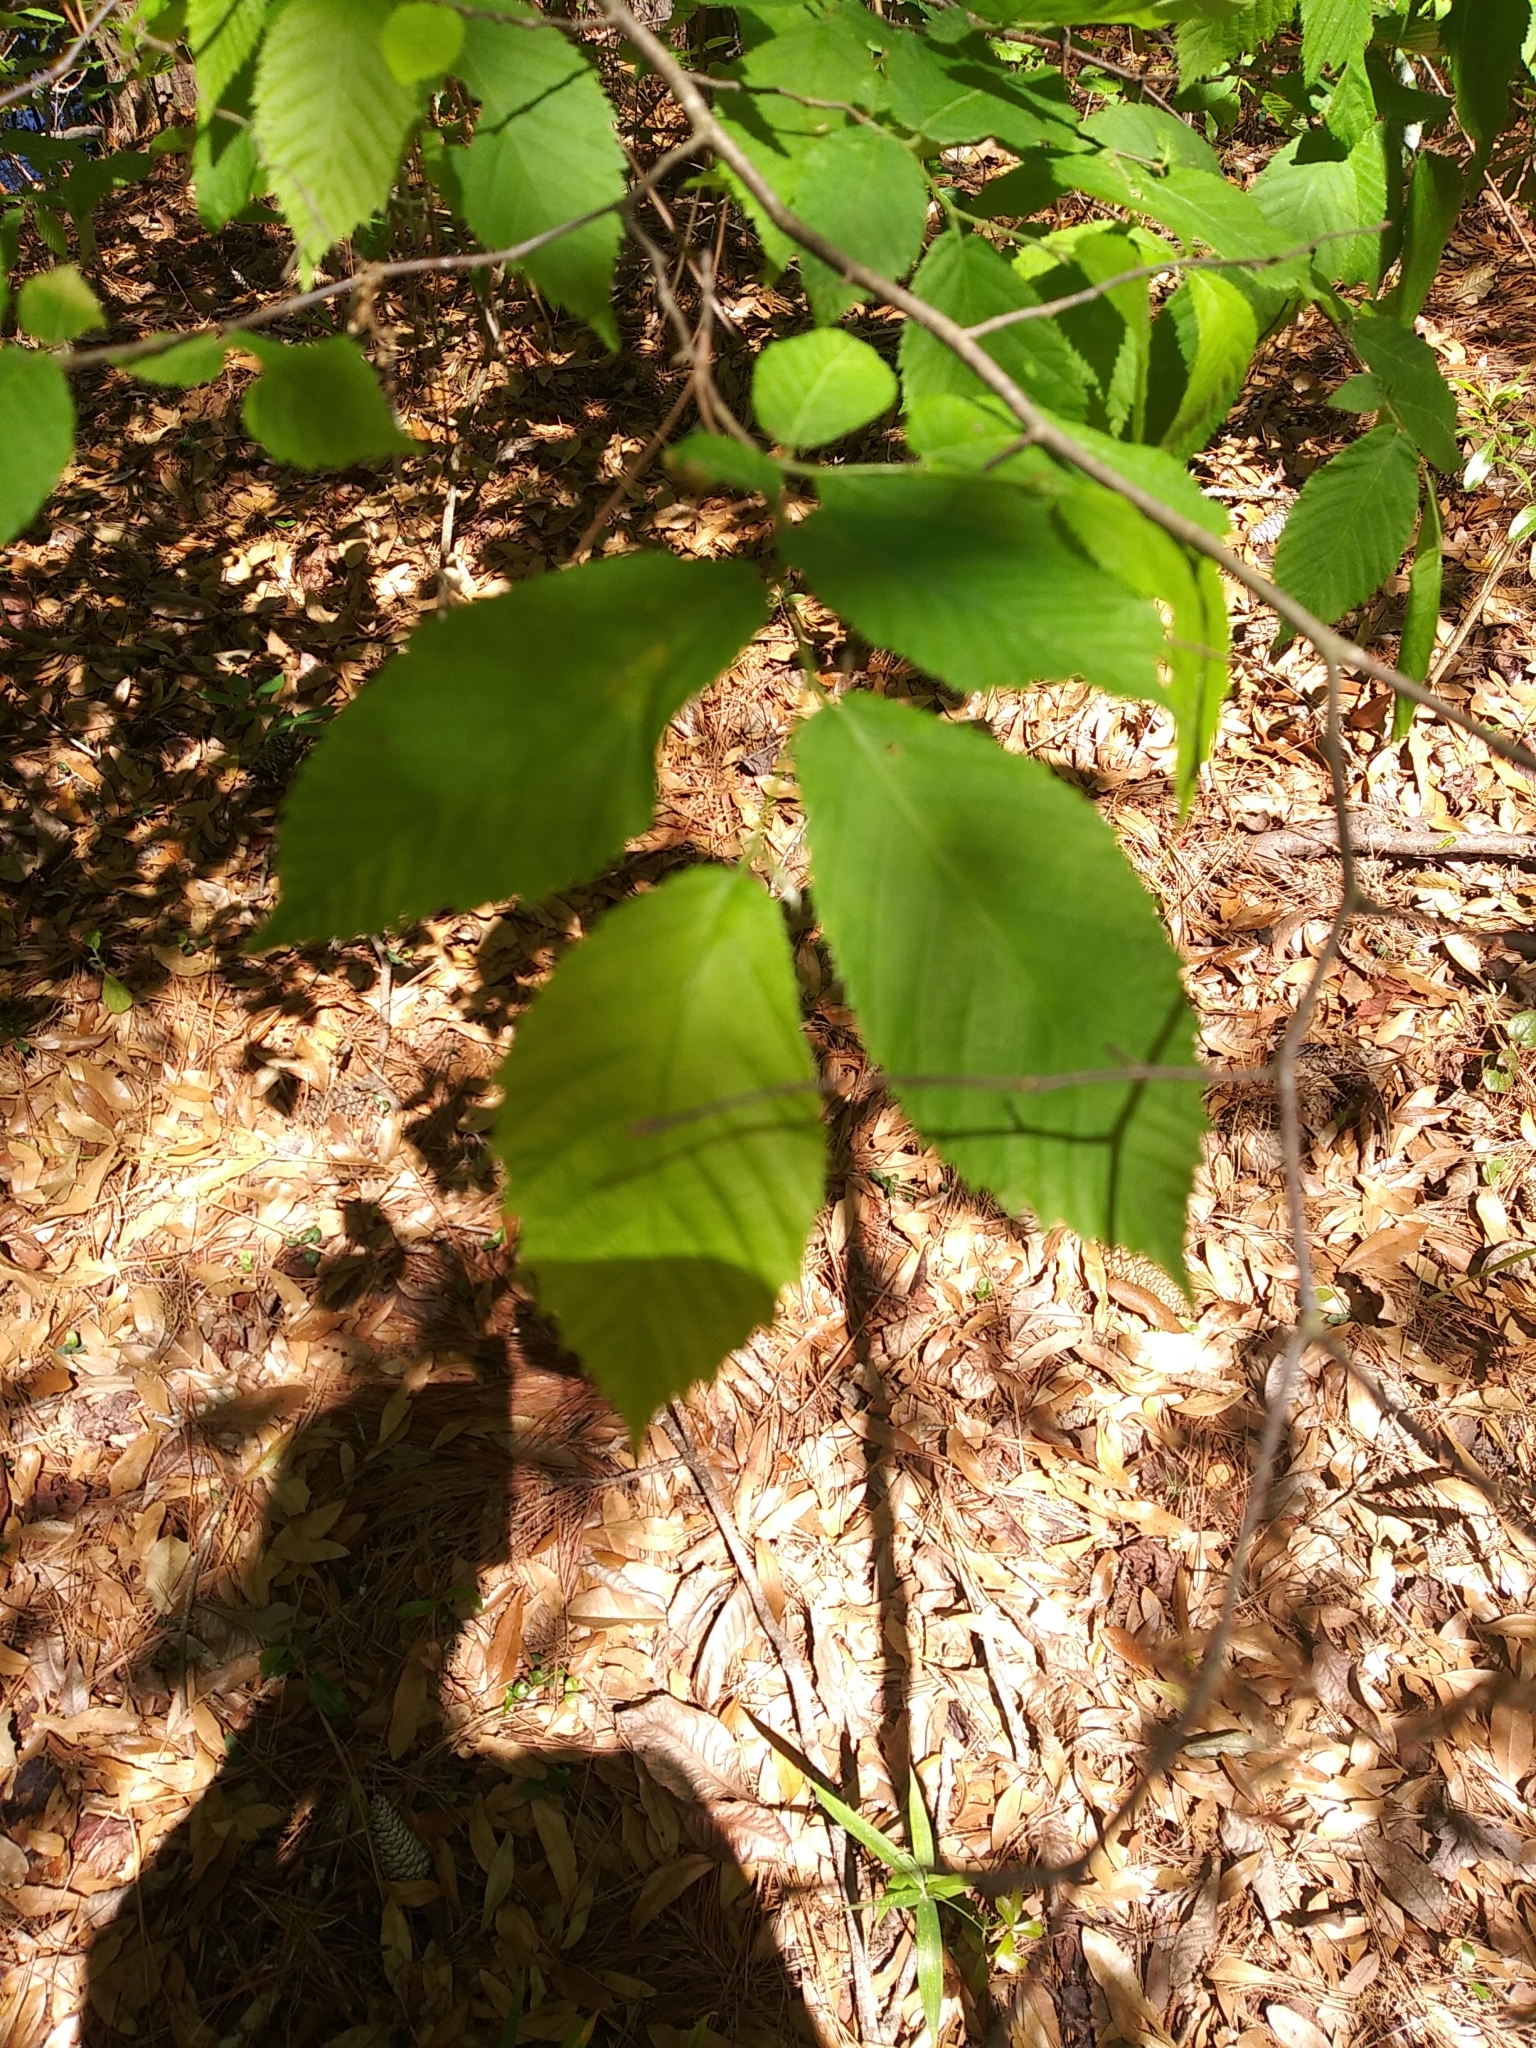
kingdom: Plantae
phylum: Tracheophyta
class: Magnoliopsida
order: Fagales
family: Betulaceae
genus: Ostrya
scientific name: Ostrya virginiana
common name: Ironwood
